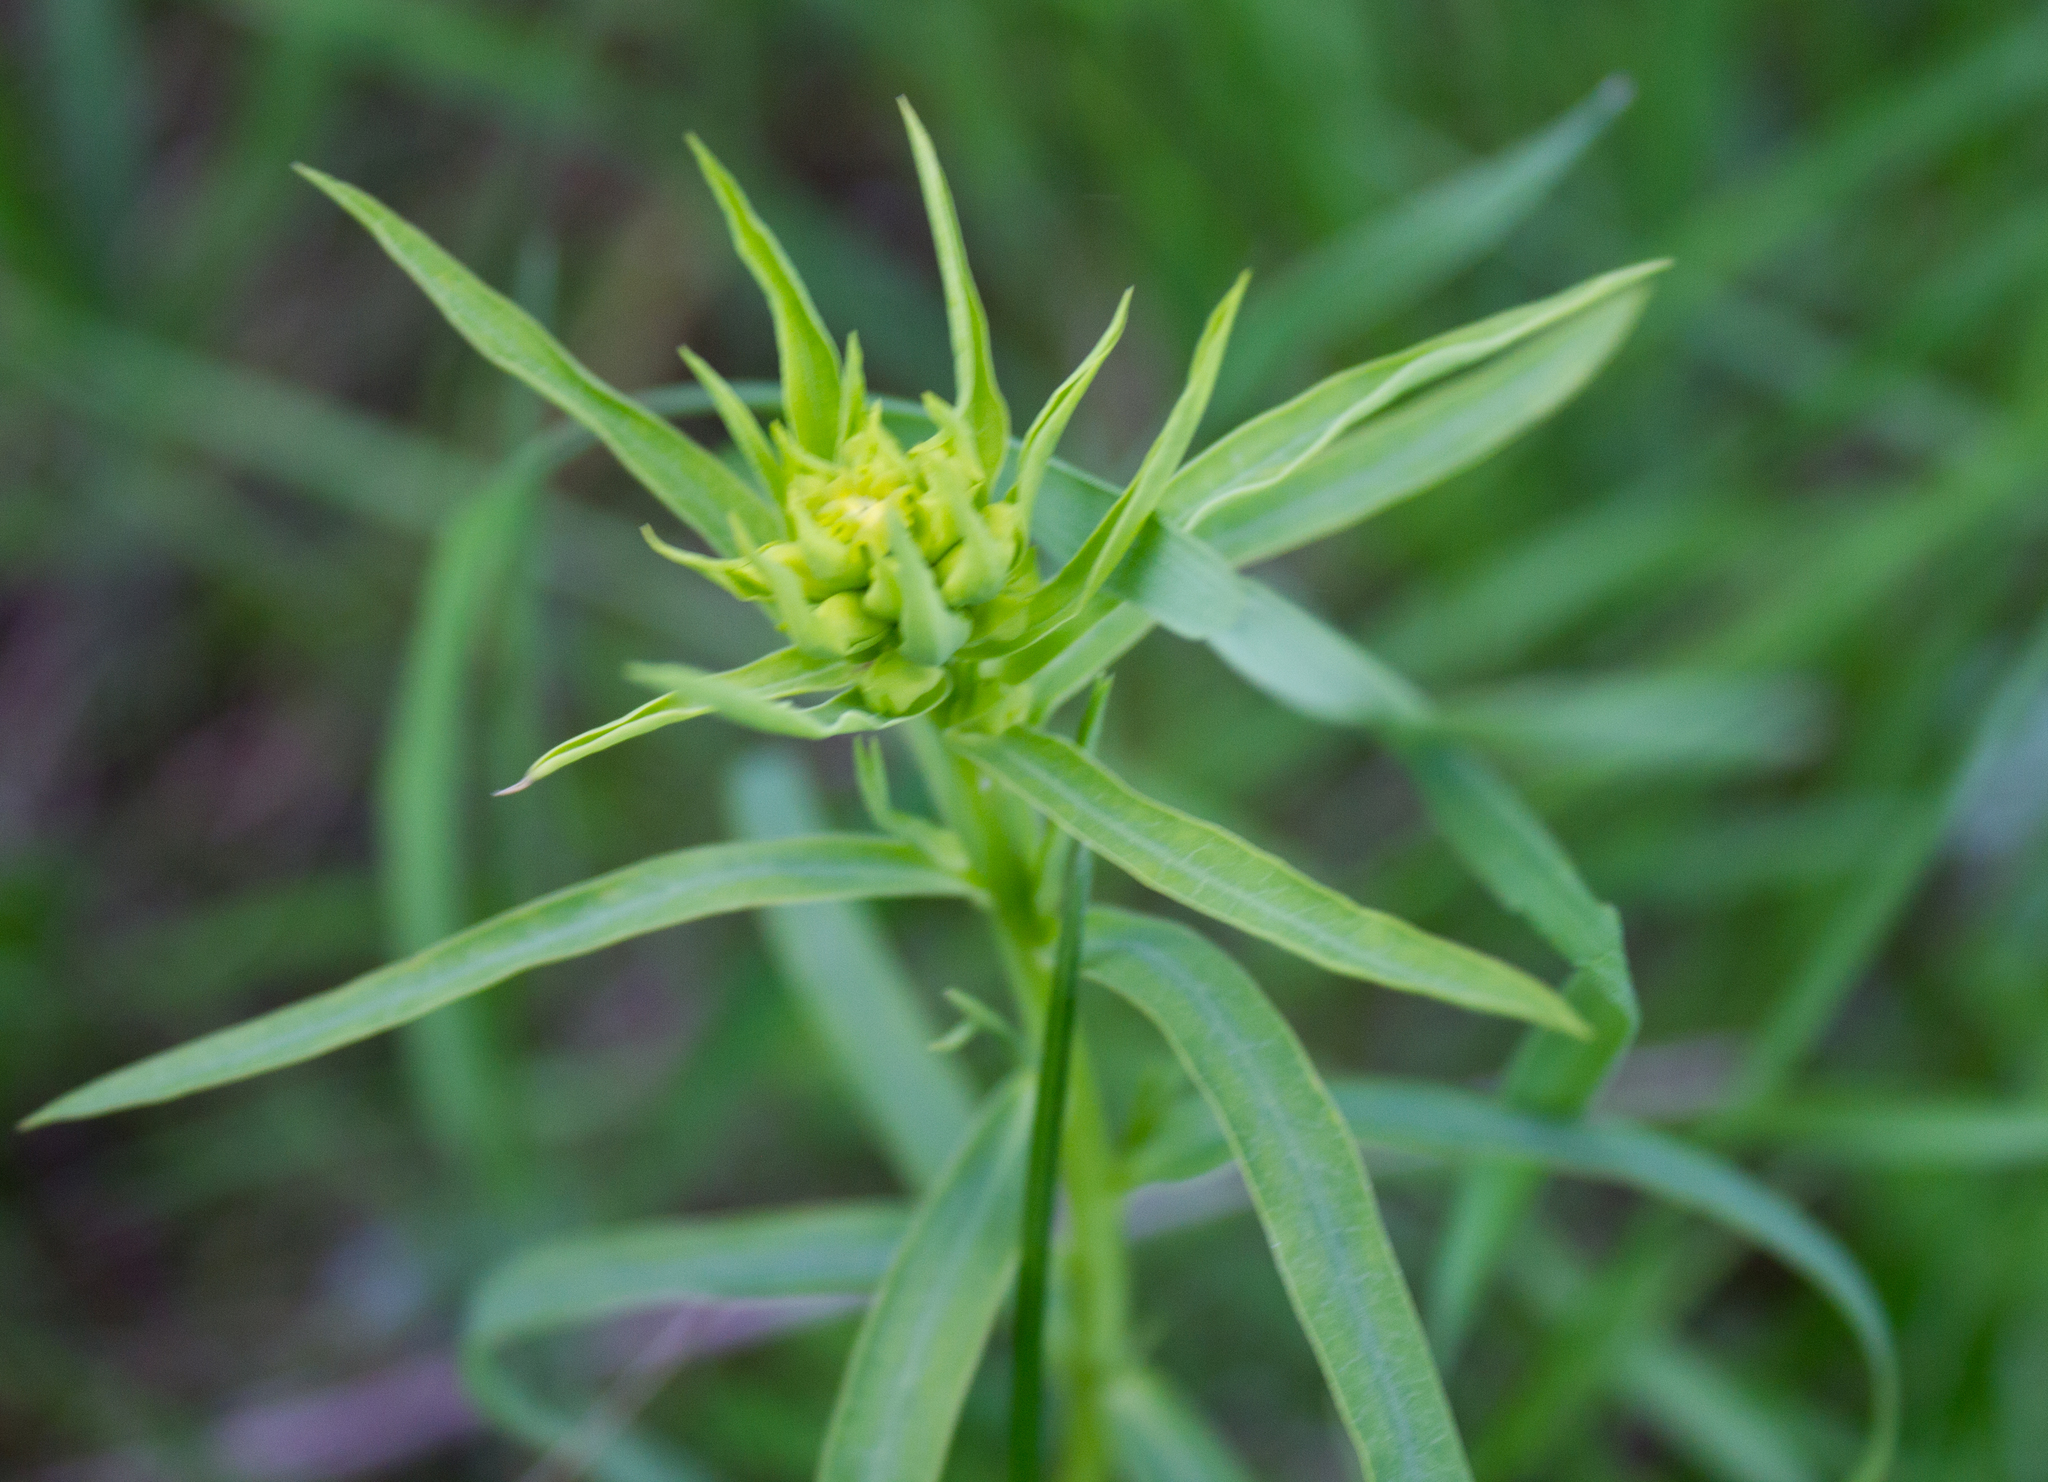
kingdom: Plantae
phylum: Tracheophyta
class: Magnoliopsida
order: Malpighiales
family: Euphorbiaceae
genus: Euphorbia
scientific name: Euphorbia virgata
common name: Leafy spurge
